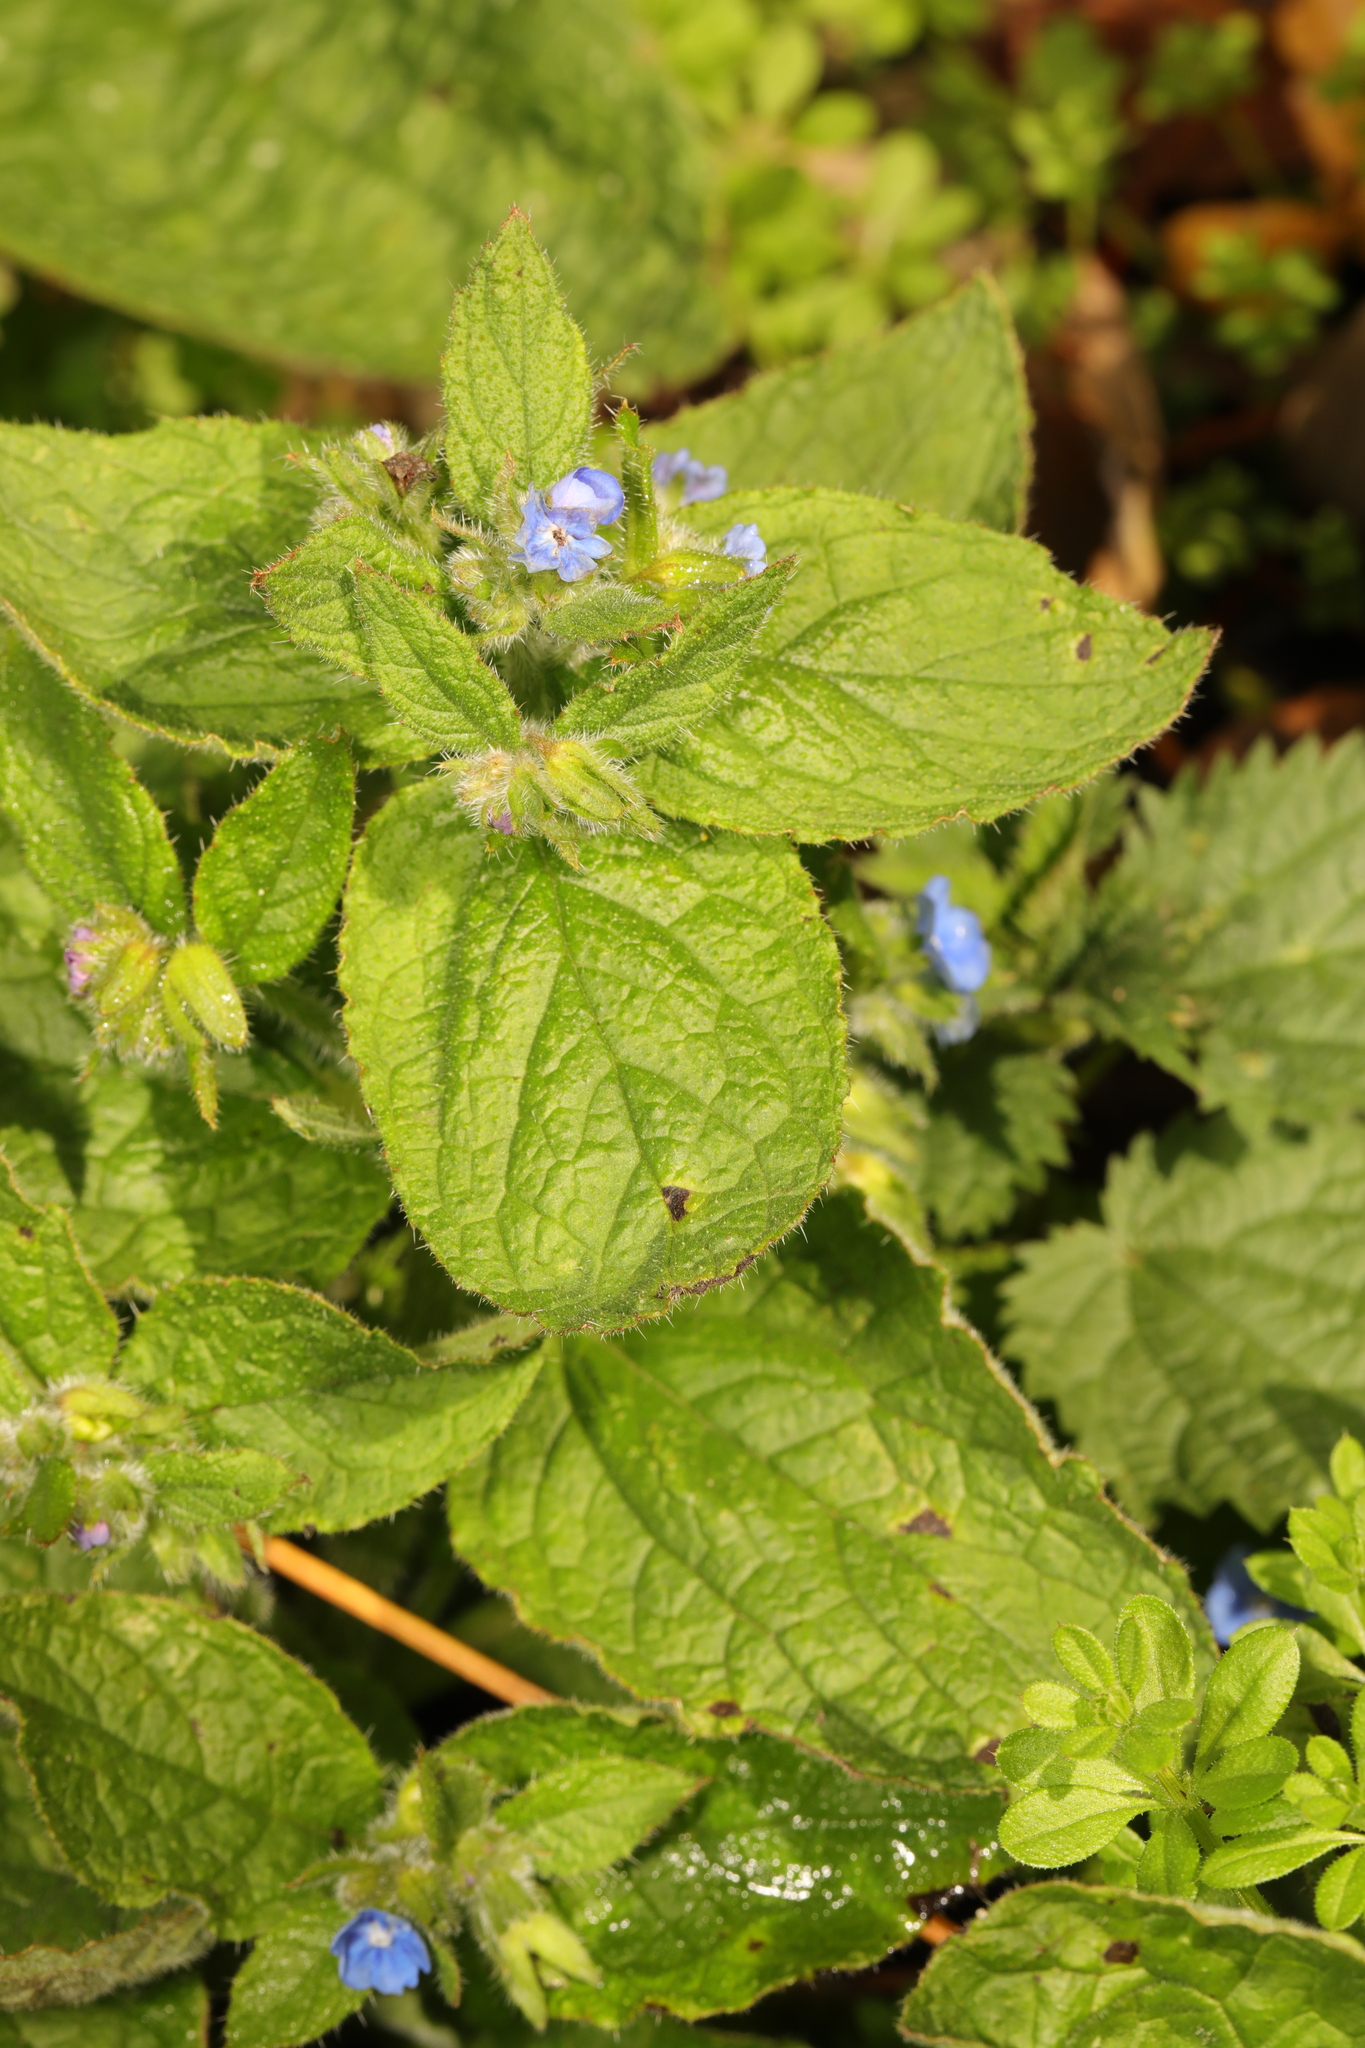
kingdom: Plantae
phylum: Tracheophyta
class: Magnoliopsida
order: Boraginales
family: Boraginaceae
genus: Pentaglottis
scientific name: Pentaglottis sempervirens
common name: Green alkanet
